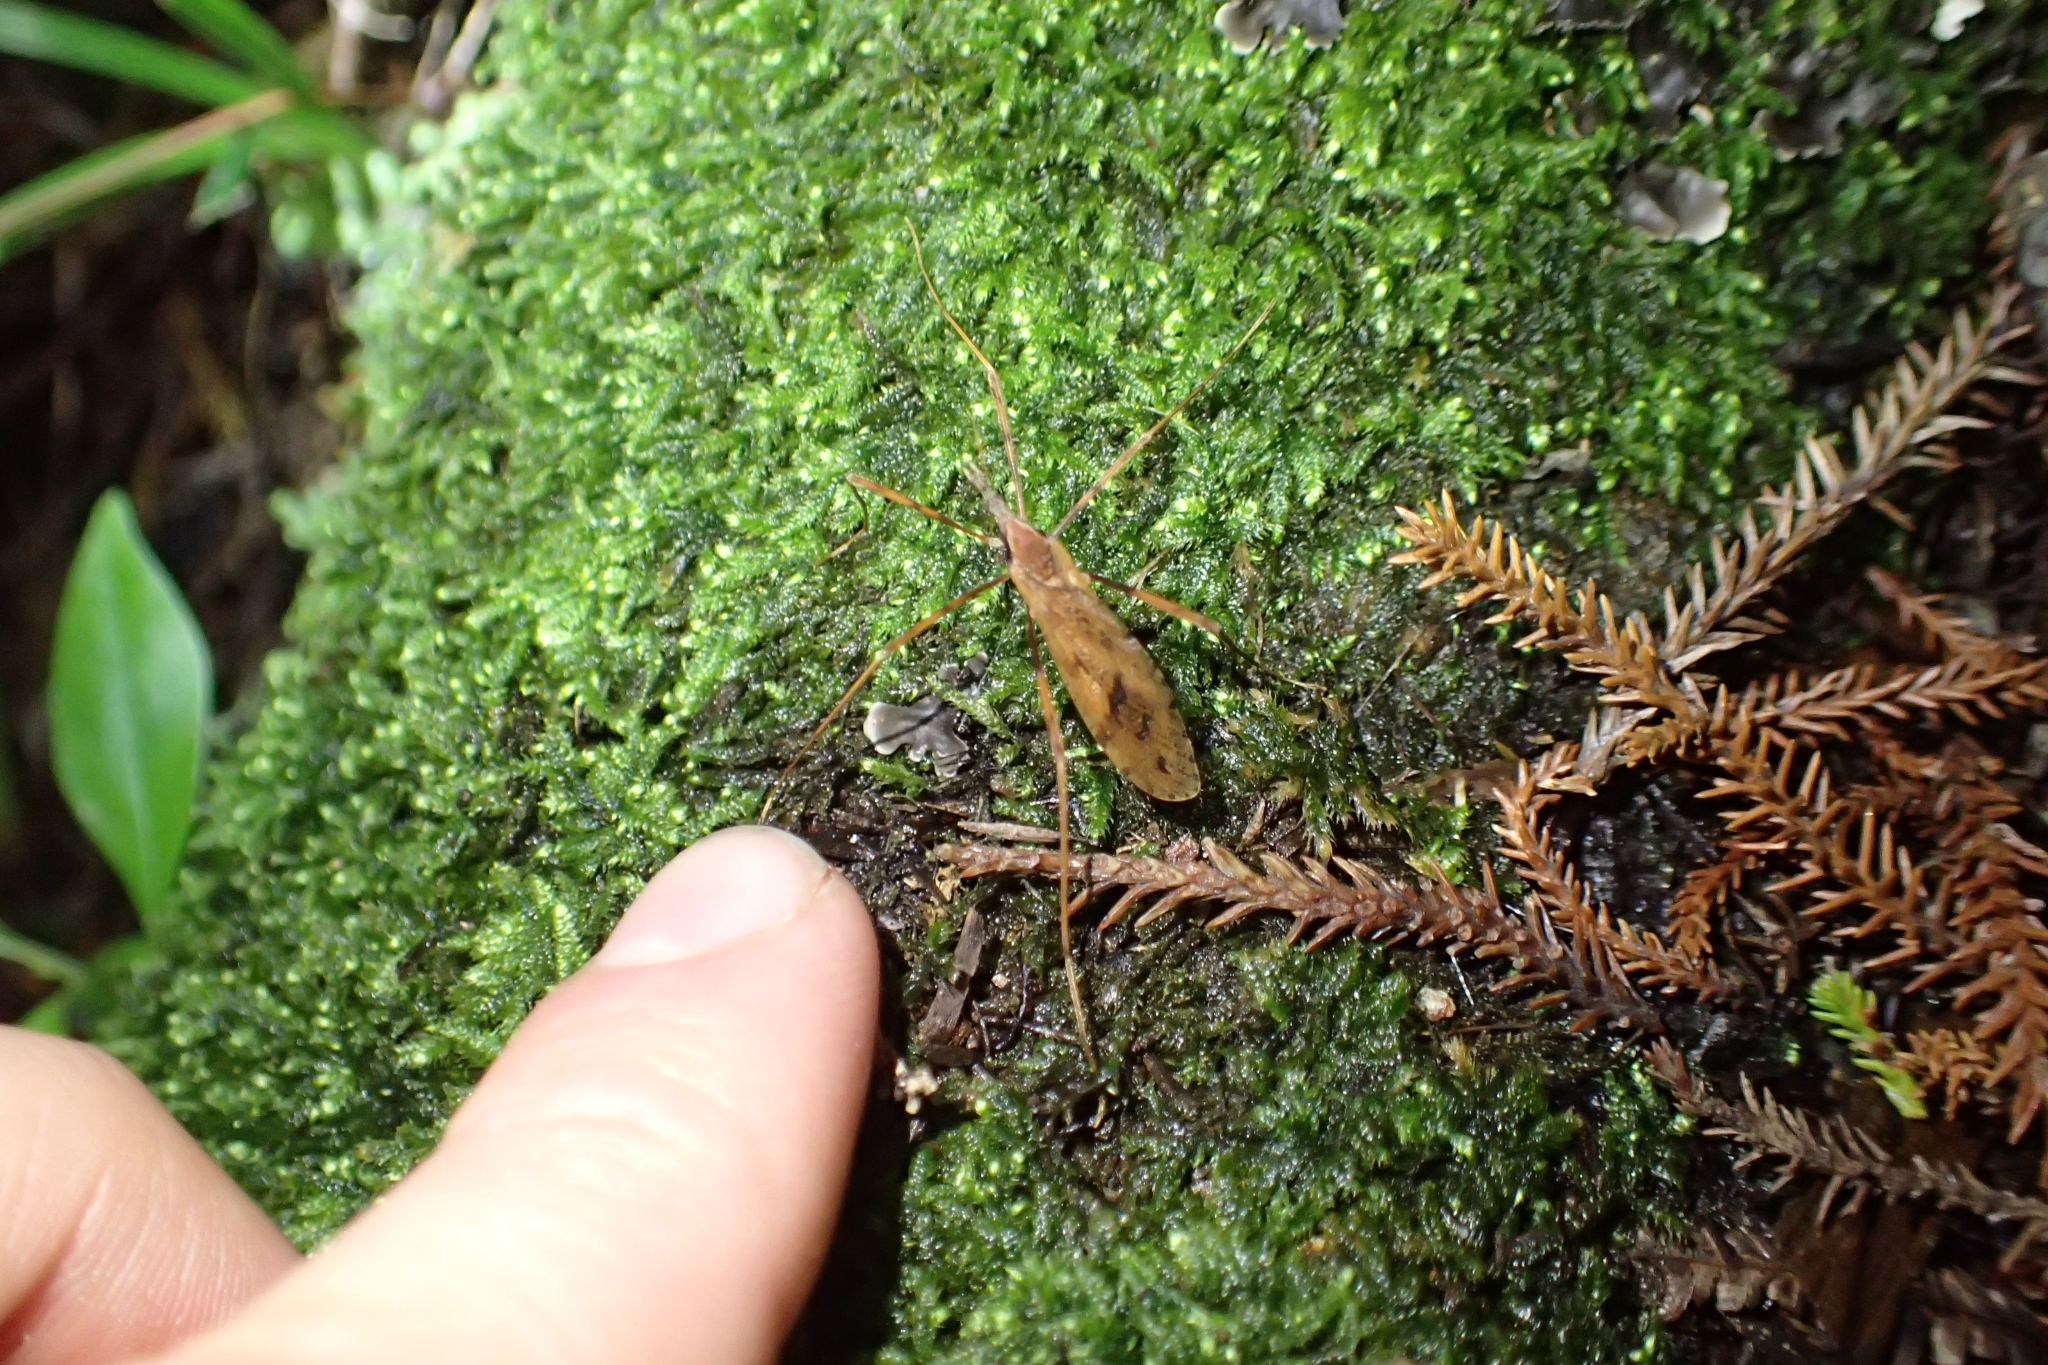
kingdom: Animalia
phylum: Arthropoda
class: Insecta
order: Diptera
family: Limoniidae
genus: Rhamphophila
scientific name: Rhamphophila sinistra
